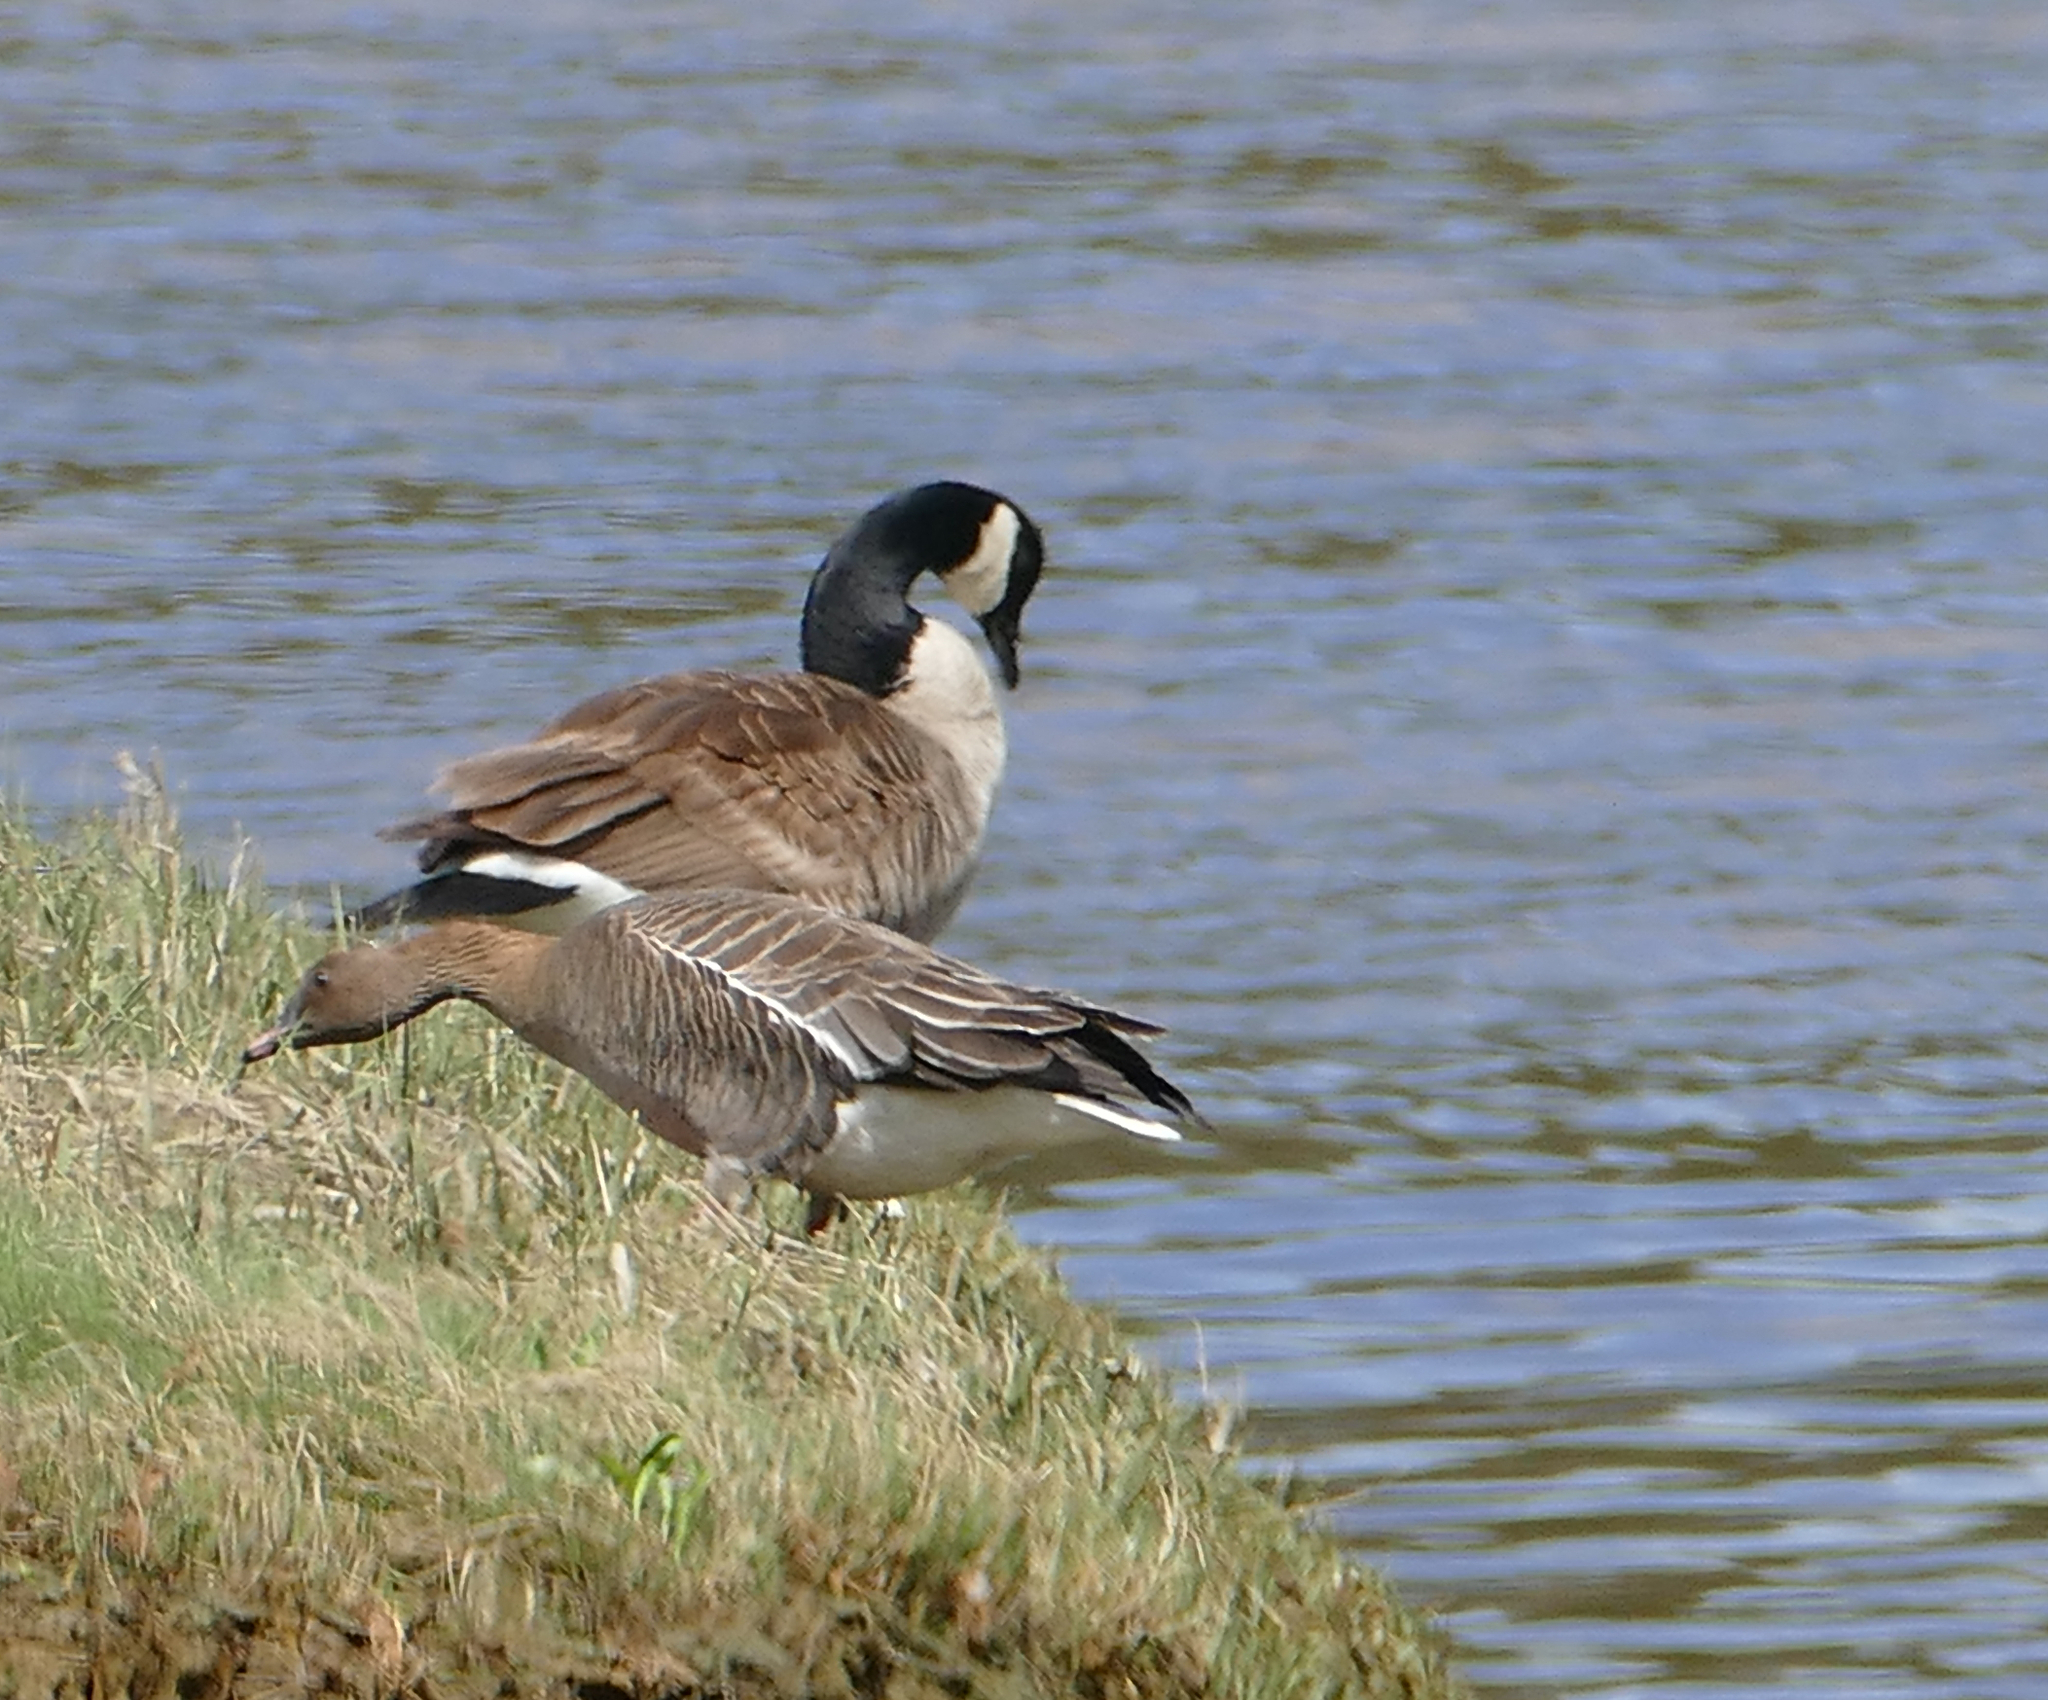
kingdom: Animalia
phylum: Chordata
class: Aves
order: Anseriformes
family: Anatidae
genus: Anser
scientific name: Anser brachyrhynchus
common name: Pink-footed goose
